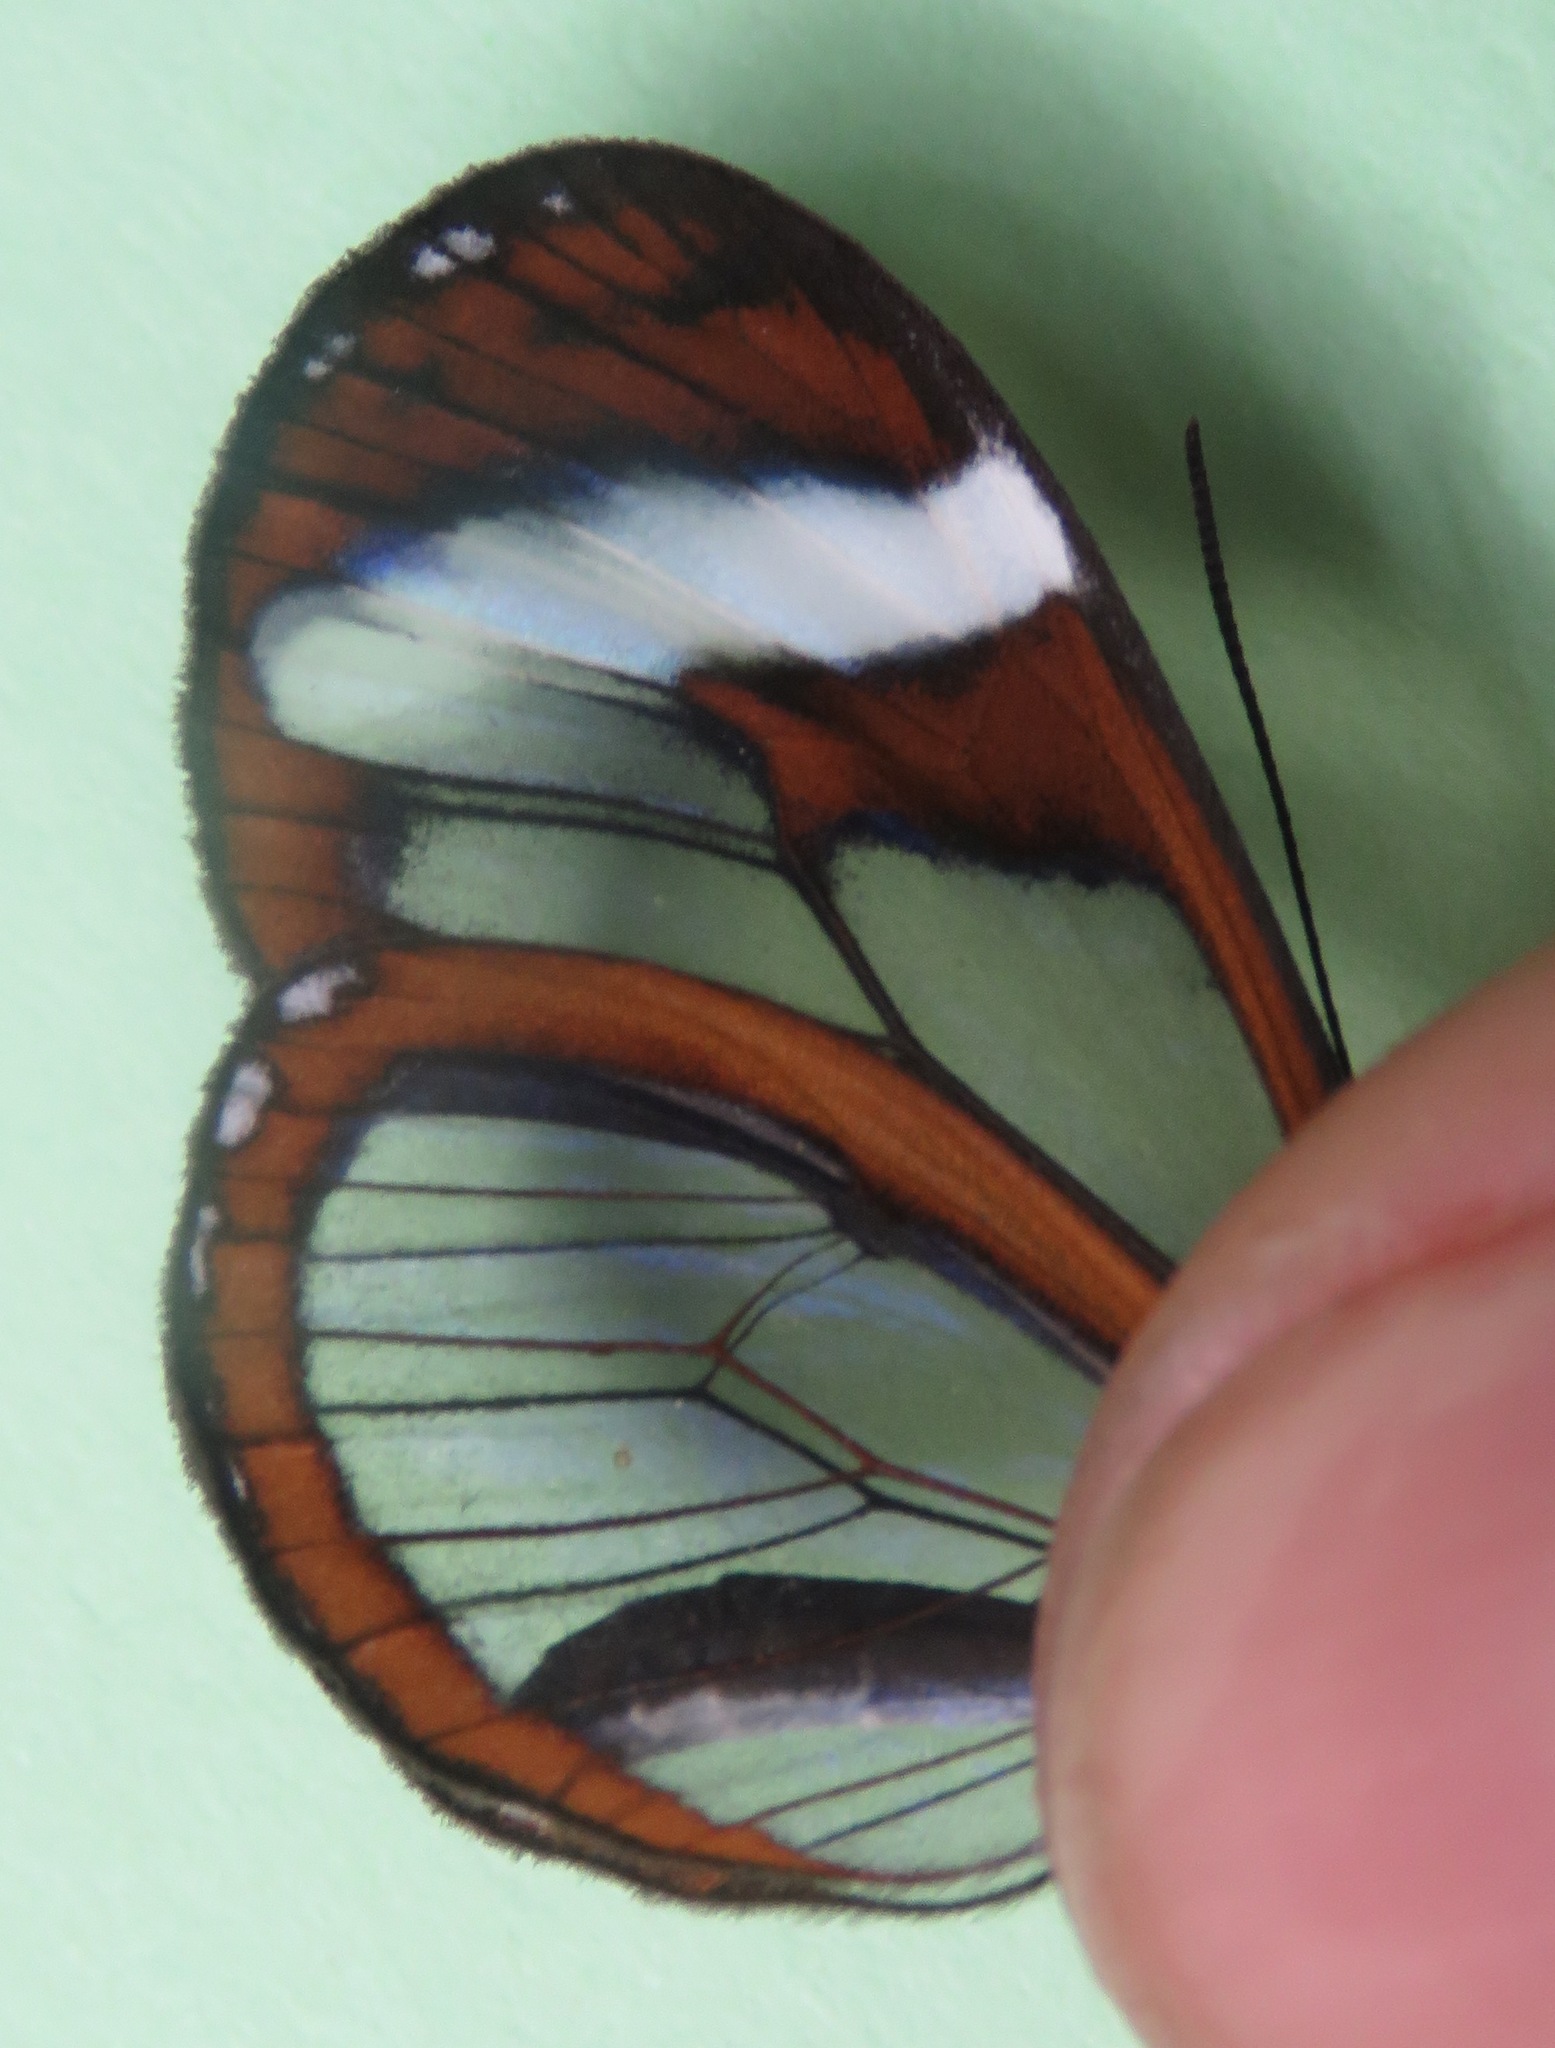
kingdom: Animalia
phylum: Arthropoda
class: Insecta
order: Lepidoptera
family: Nymphalidae
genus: Oleria
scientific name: Oleria paula
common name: Paula's clearwing
